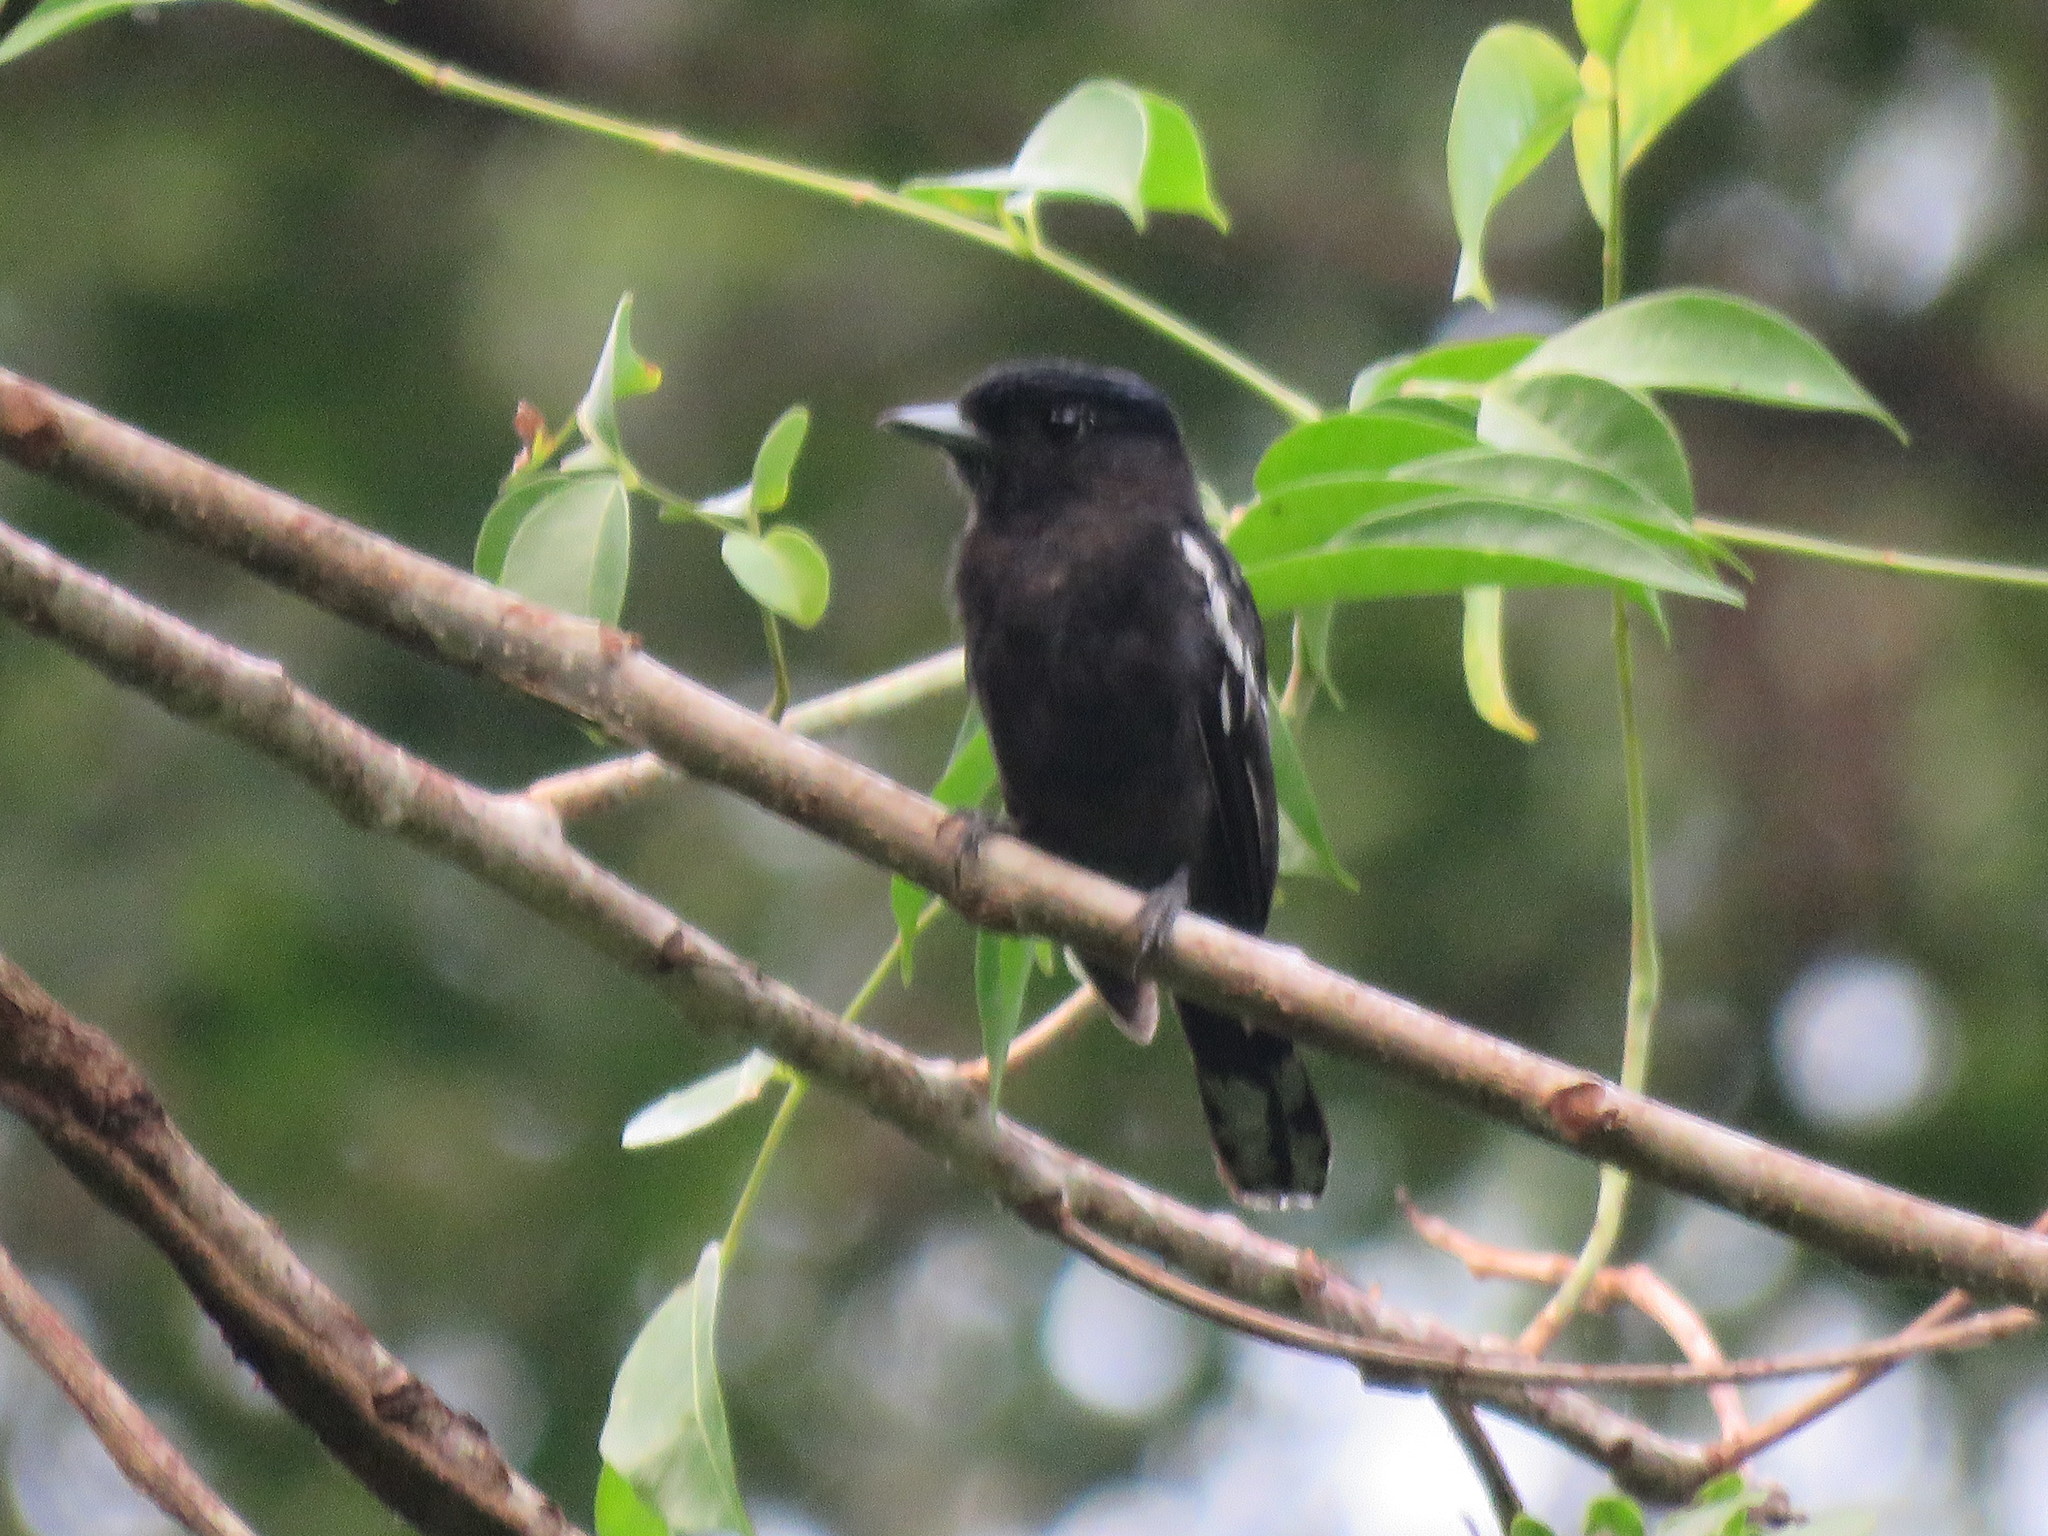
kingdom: Animalia
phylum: Chordata
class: Aves
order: Passeriformes
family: Cotingidae
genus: Pachyramphus
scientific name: Pachyramphus polychopterus
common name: White-winged becard
